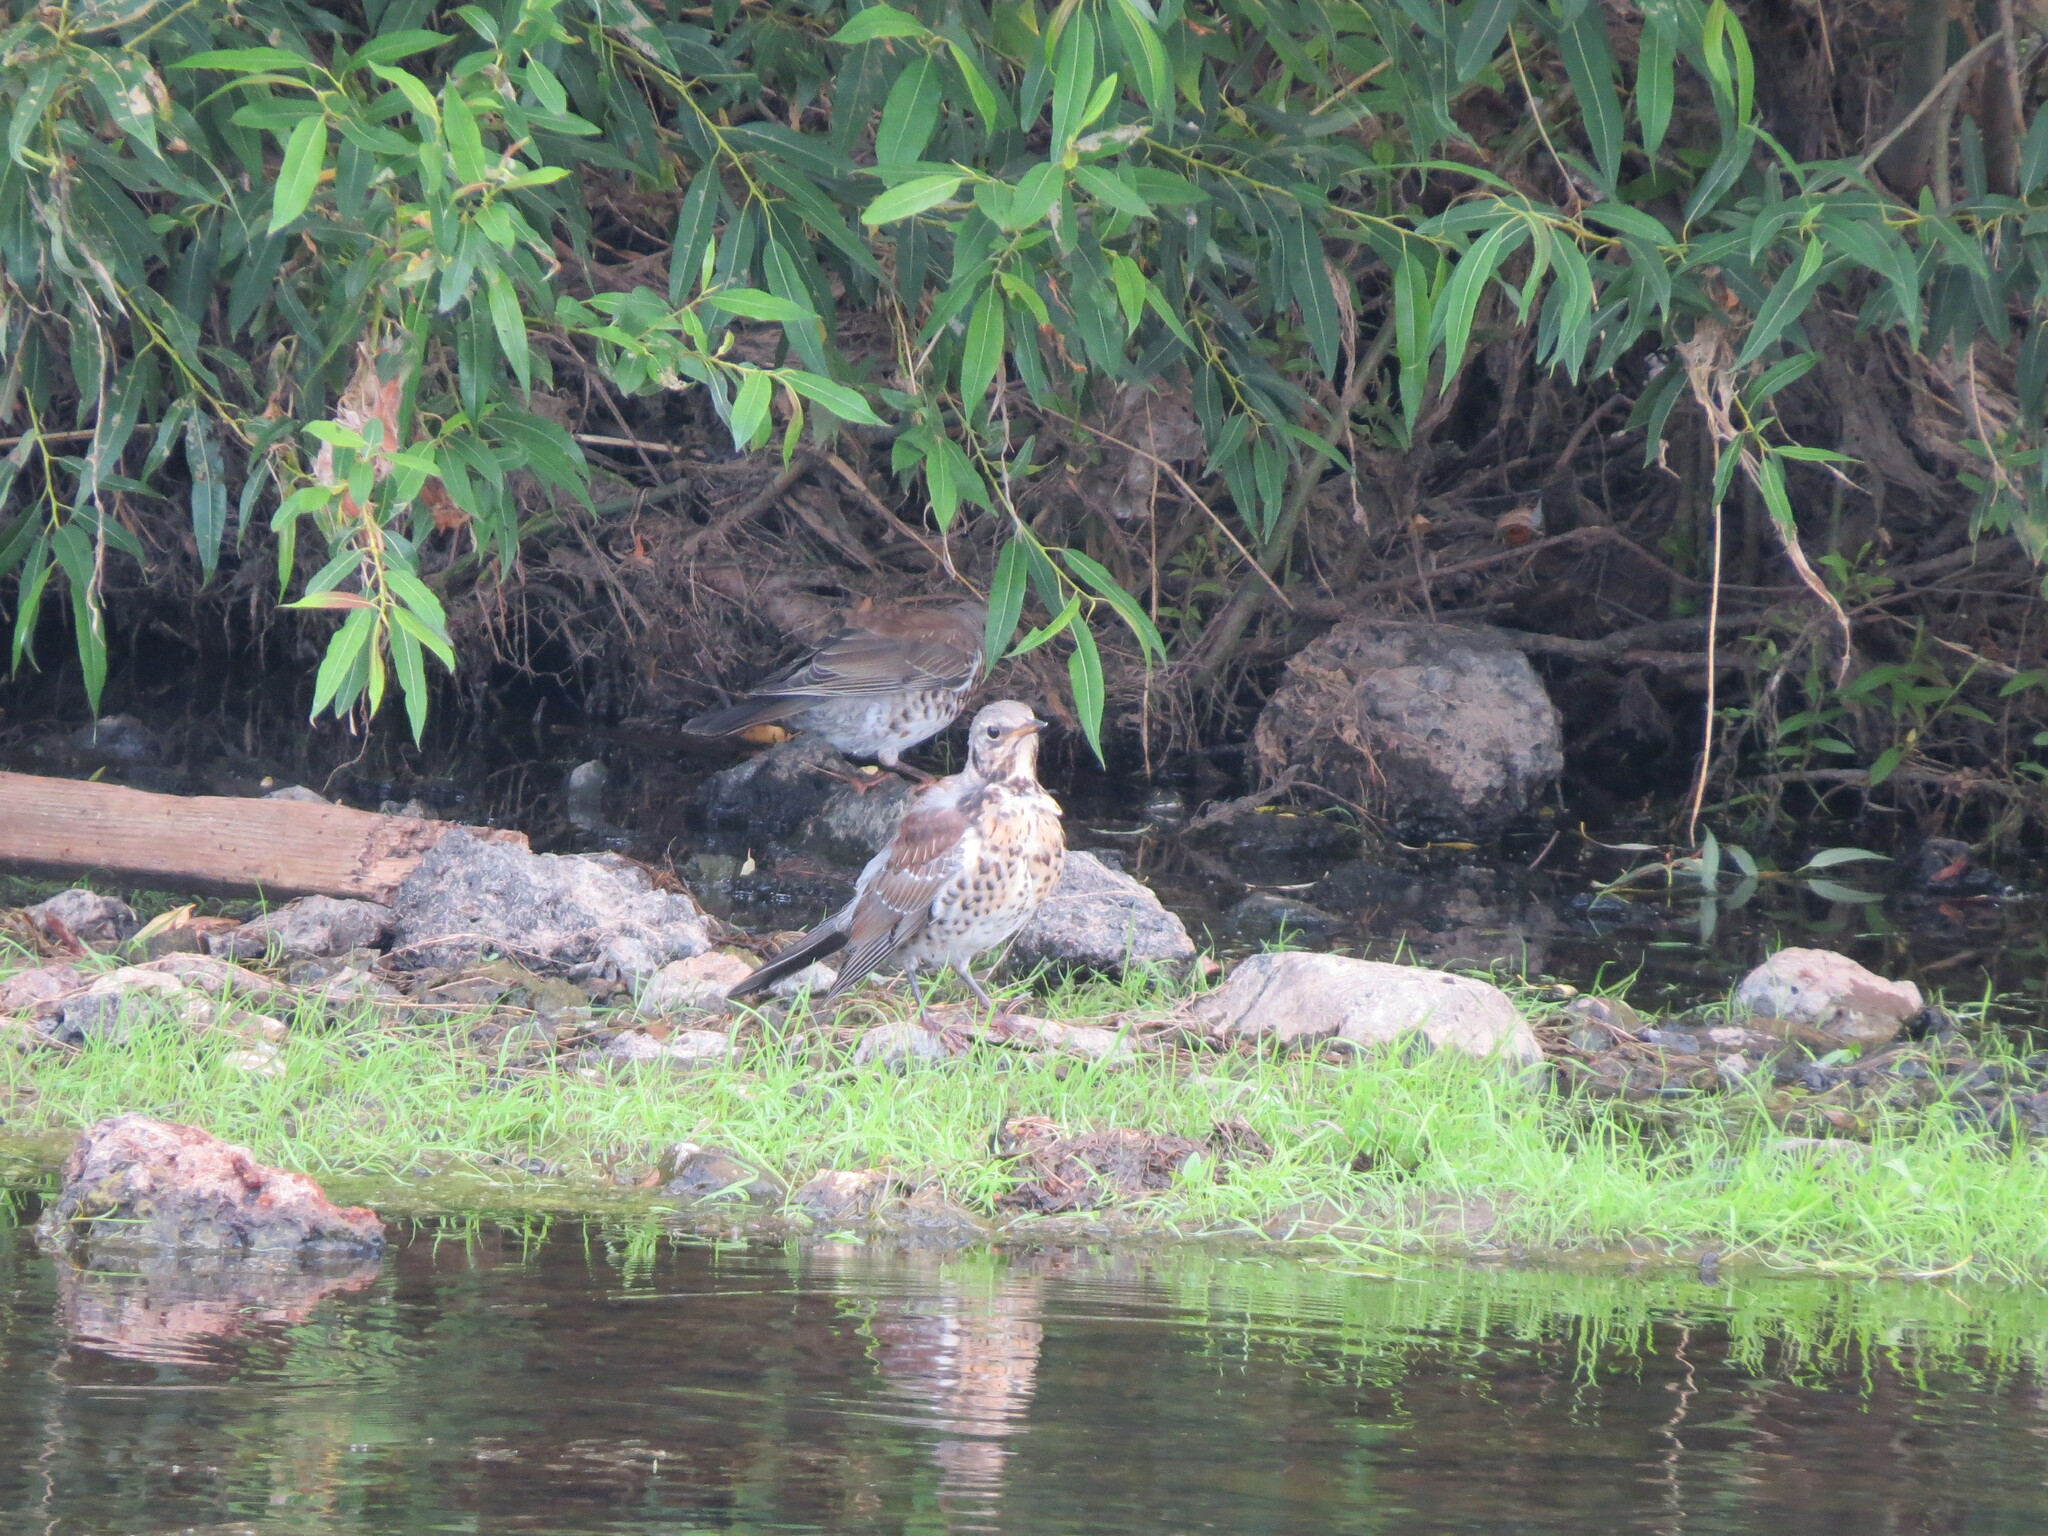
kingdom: Animalia
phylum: Chordata
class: Aves
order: Passeriformes
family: Turdidae
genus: Turdus
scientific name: Turdus pilaris
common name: Fieldfare
